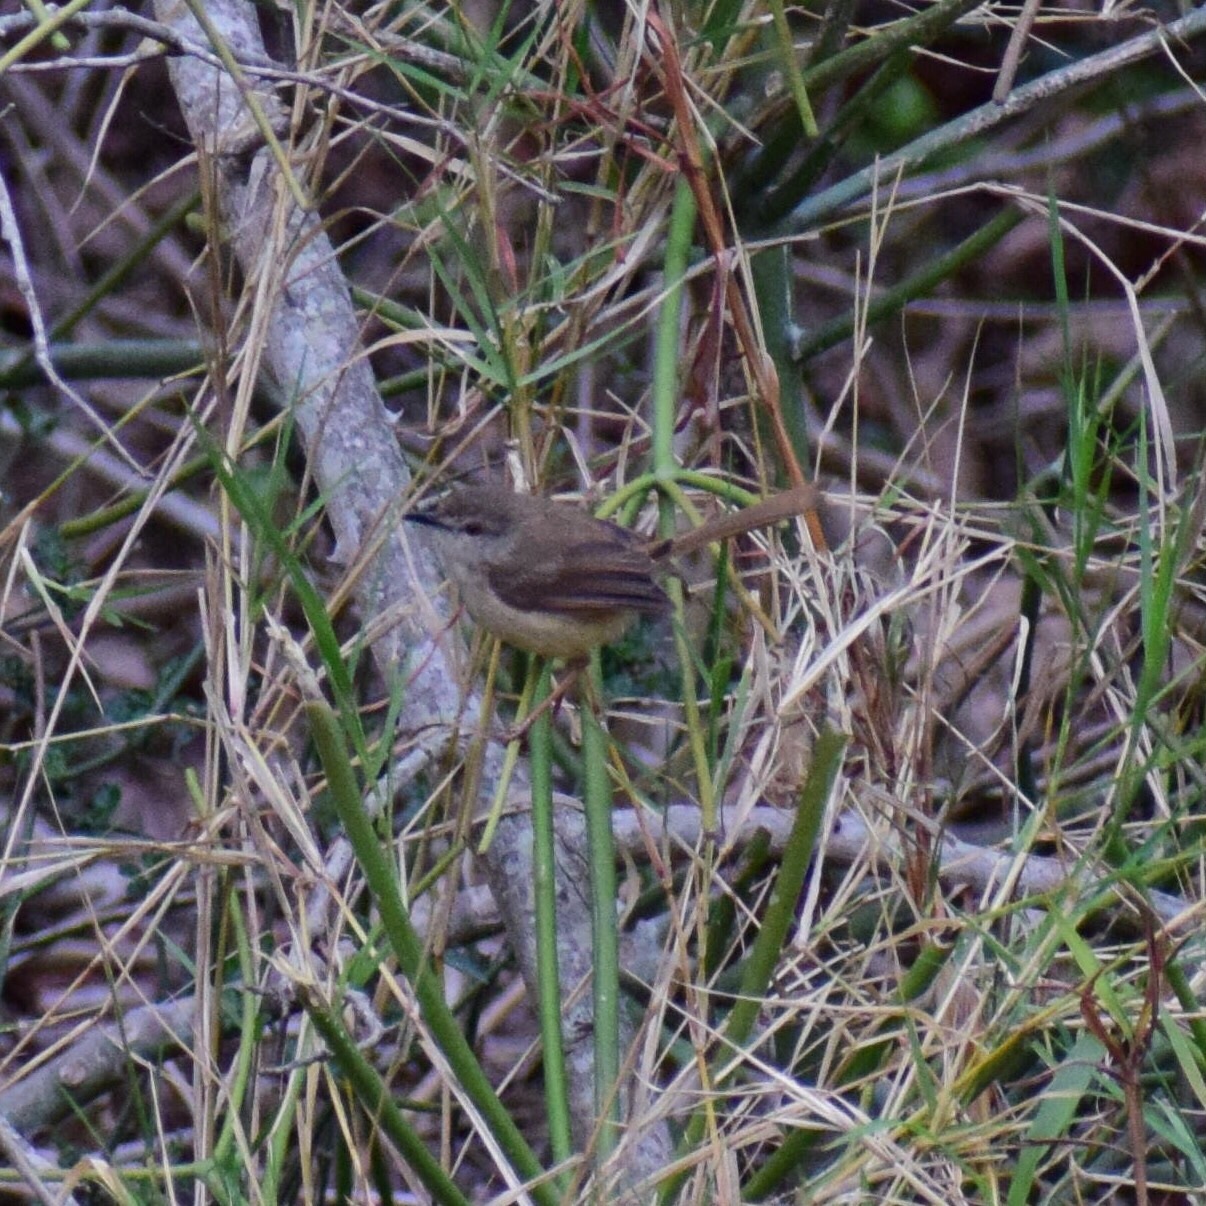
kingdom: Animalia
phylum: Chordata
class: Aves
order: Passeriformes
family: Cisticolidae
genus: Prinia
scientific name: Prinia subflava
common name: Tawny-flanked prinia
